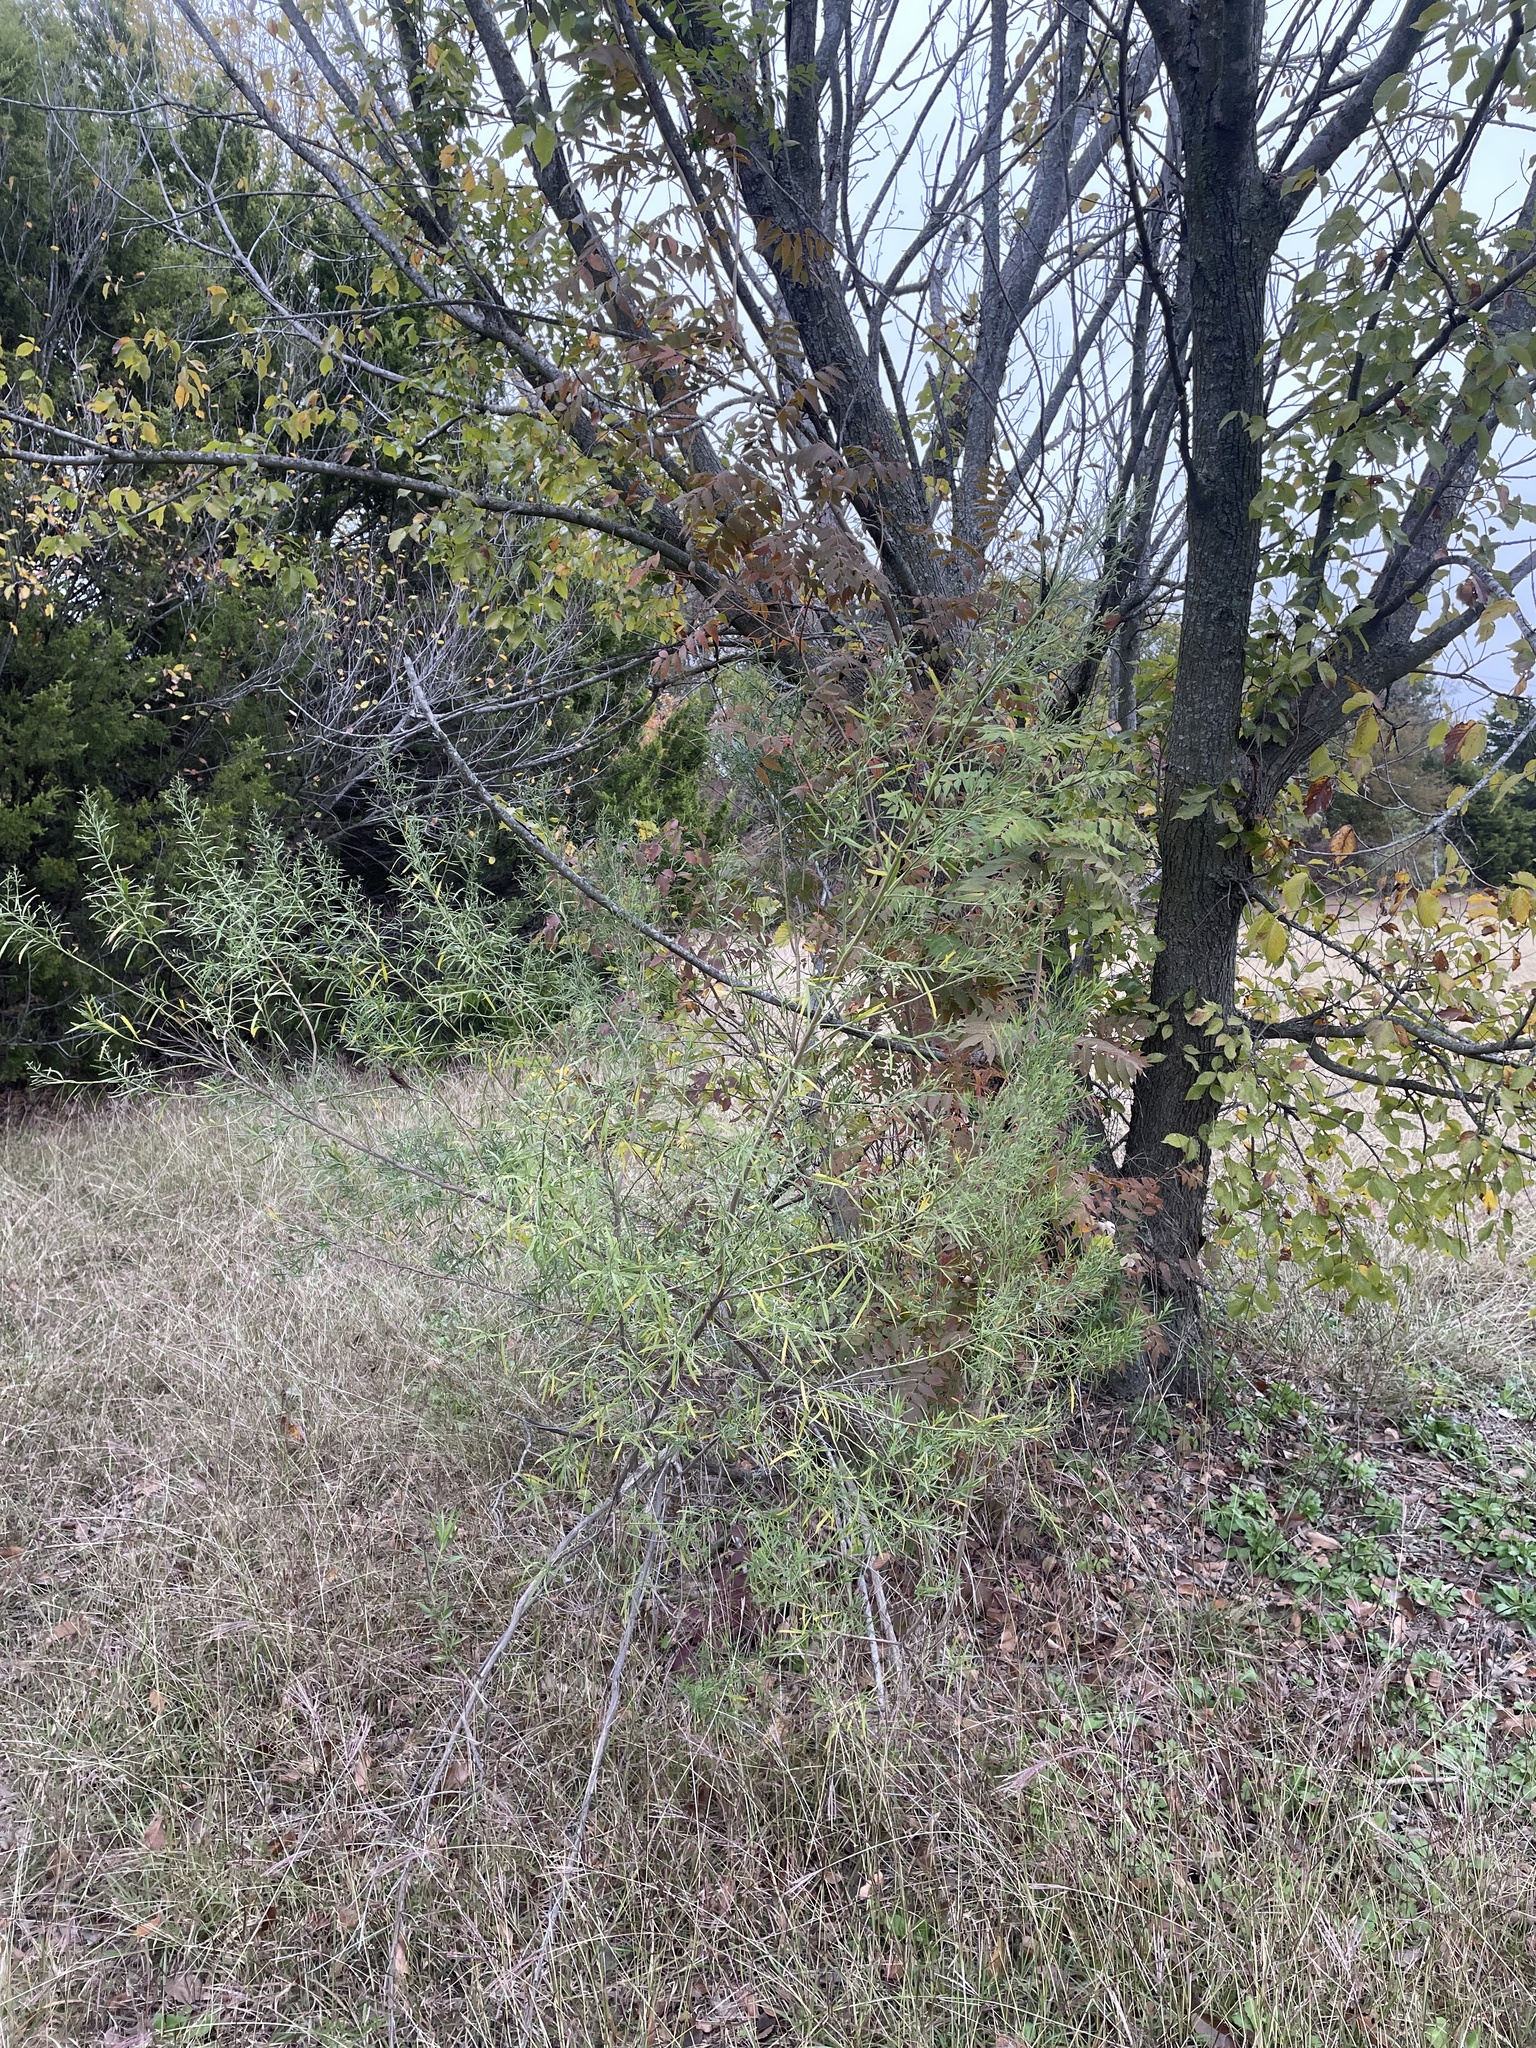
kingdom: Plantae
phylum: Tracheophyta
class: Magnoliopsida
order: Asterales
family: Asteraceae
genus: Baccharis
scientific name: Baccharis neglecta
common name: Roosevelt-weed
